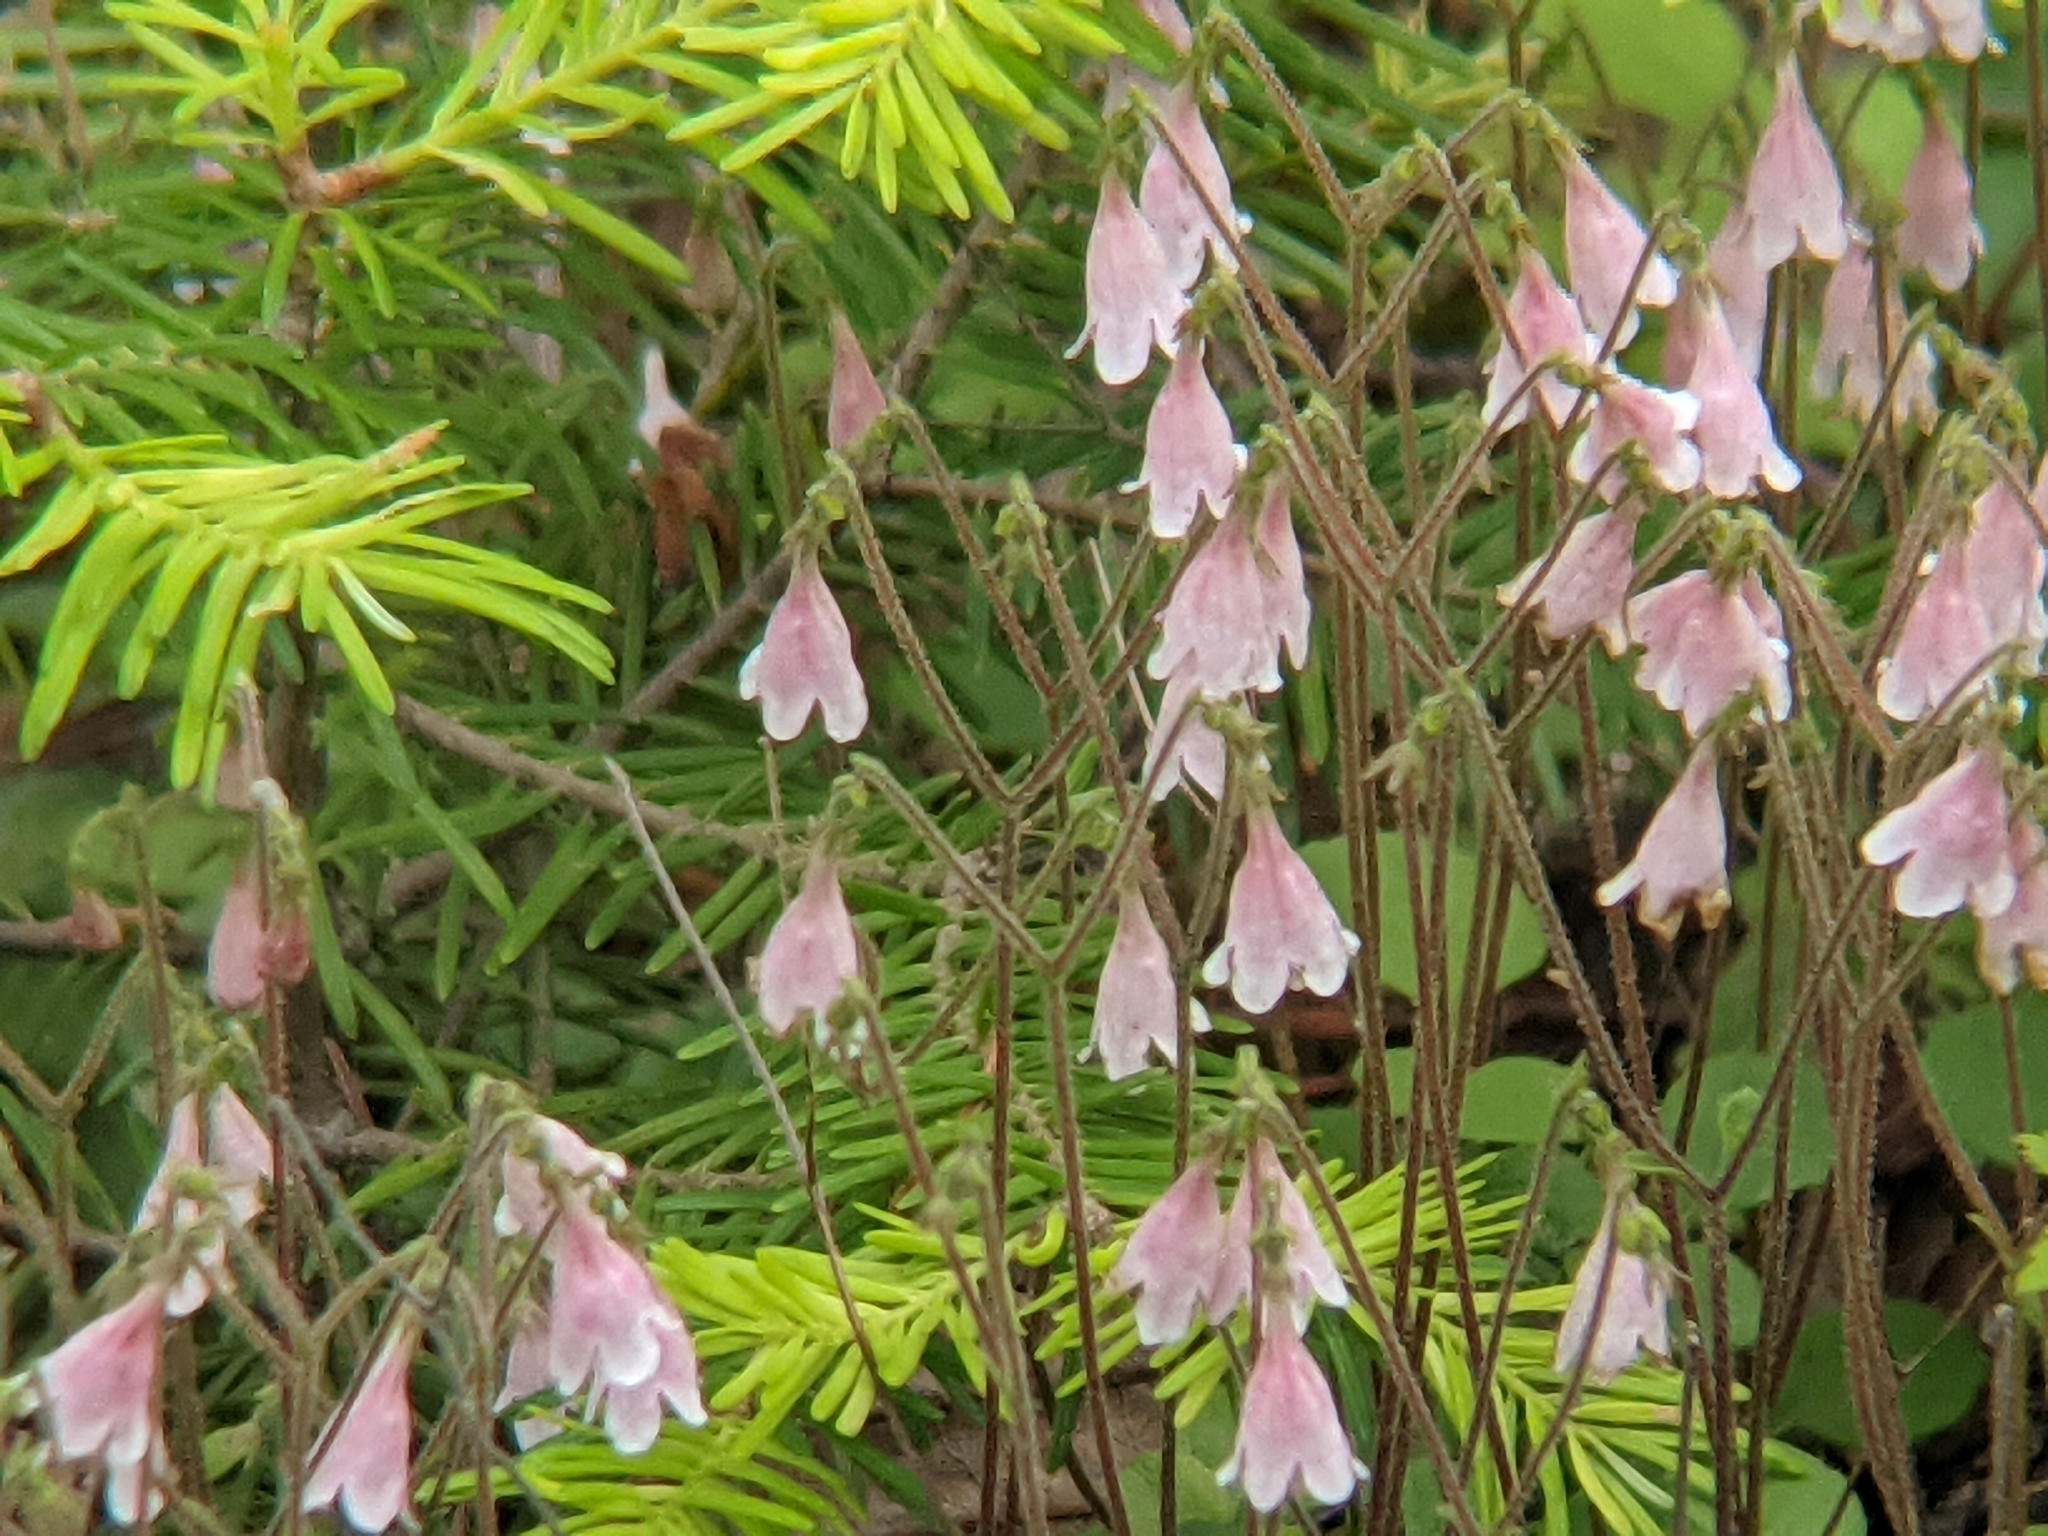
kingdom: Plantae
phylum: Tracheophyta
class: Magnoliopsida
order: Dipsacales
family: Caprifoliaceae
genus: Linnaea
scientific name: Linnaea borealis
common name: Twinflower
